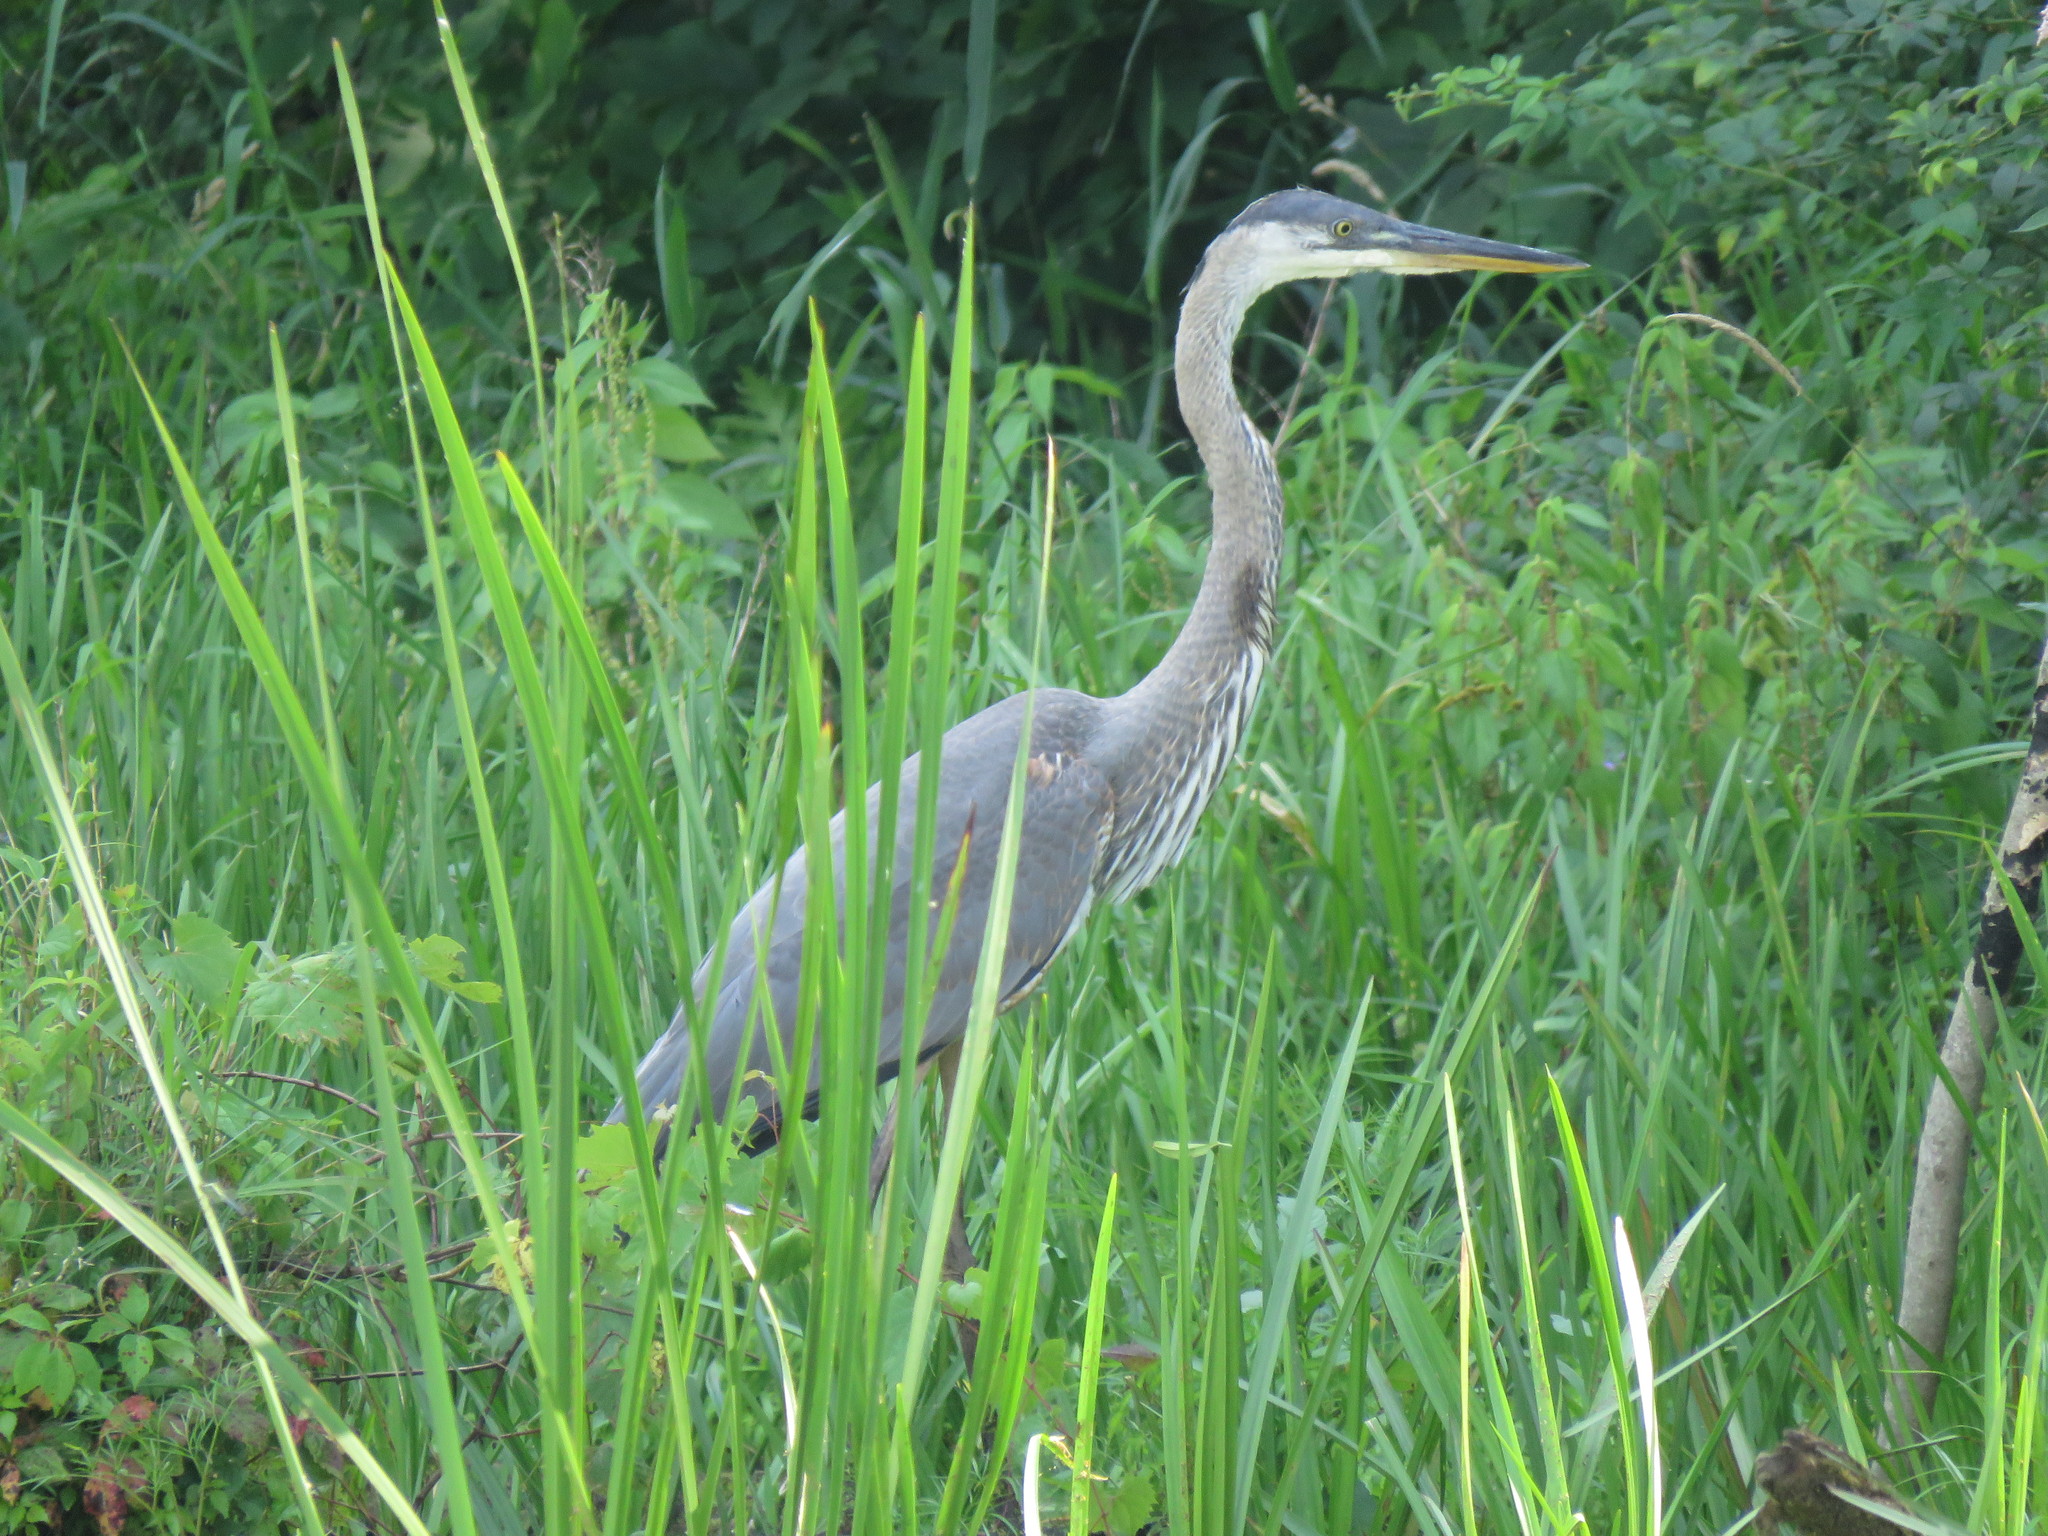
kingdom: Animalia
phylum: Chordata
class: Aves
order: Pelecaniformes
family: Ardeidae
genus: Ardea
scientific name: Ardea herodias
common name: Great blue heron
